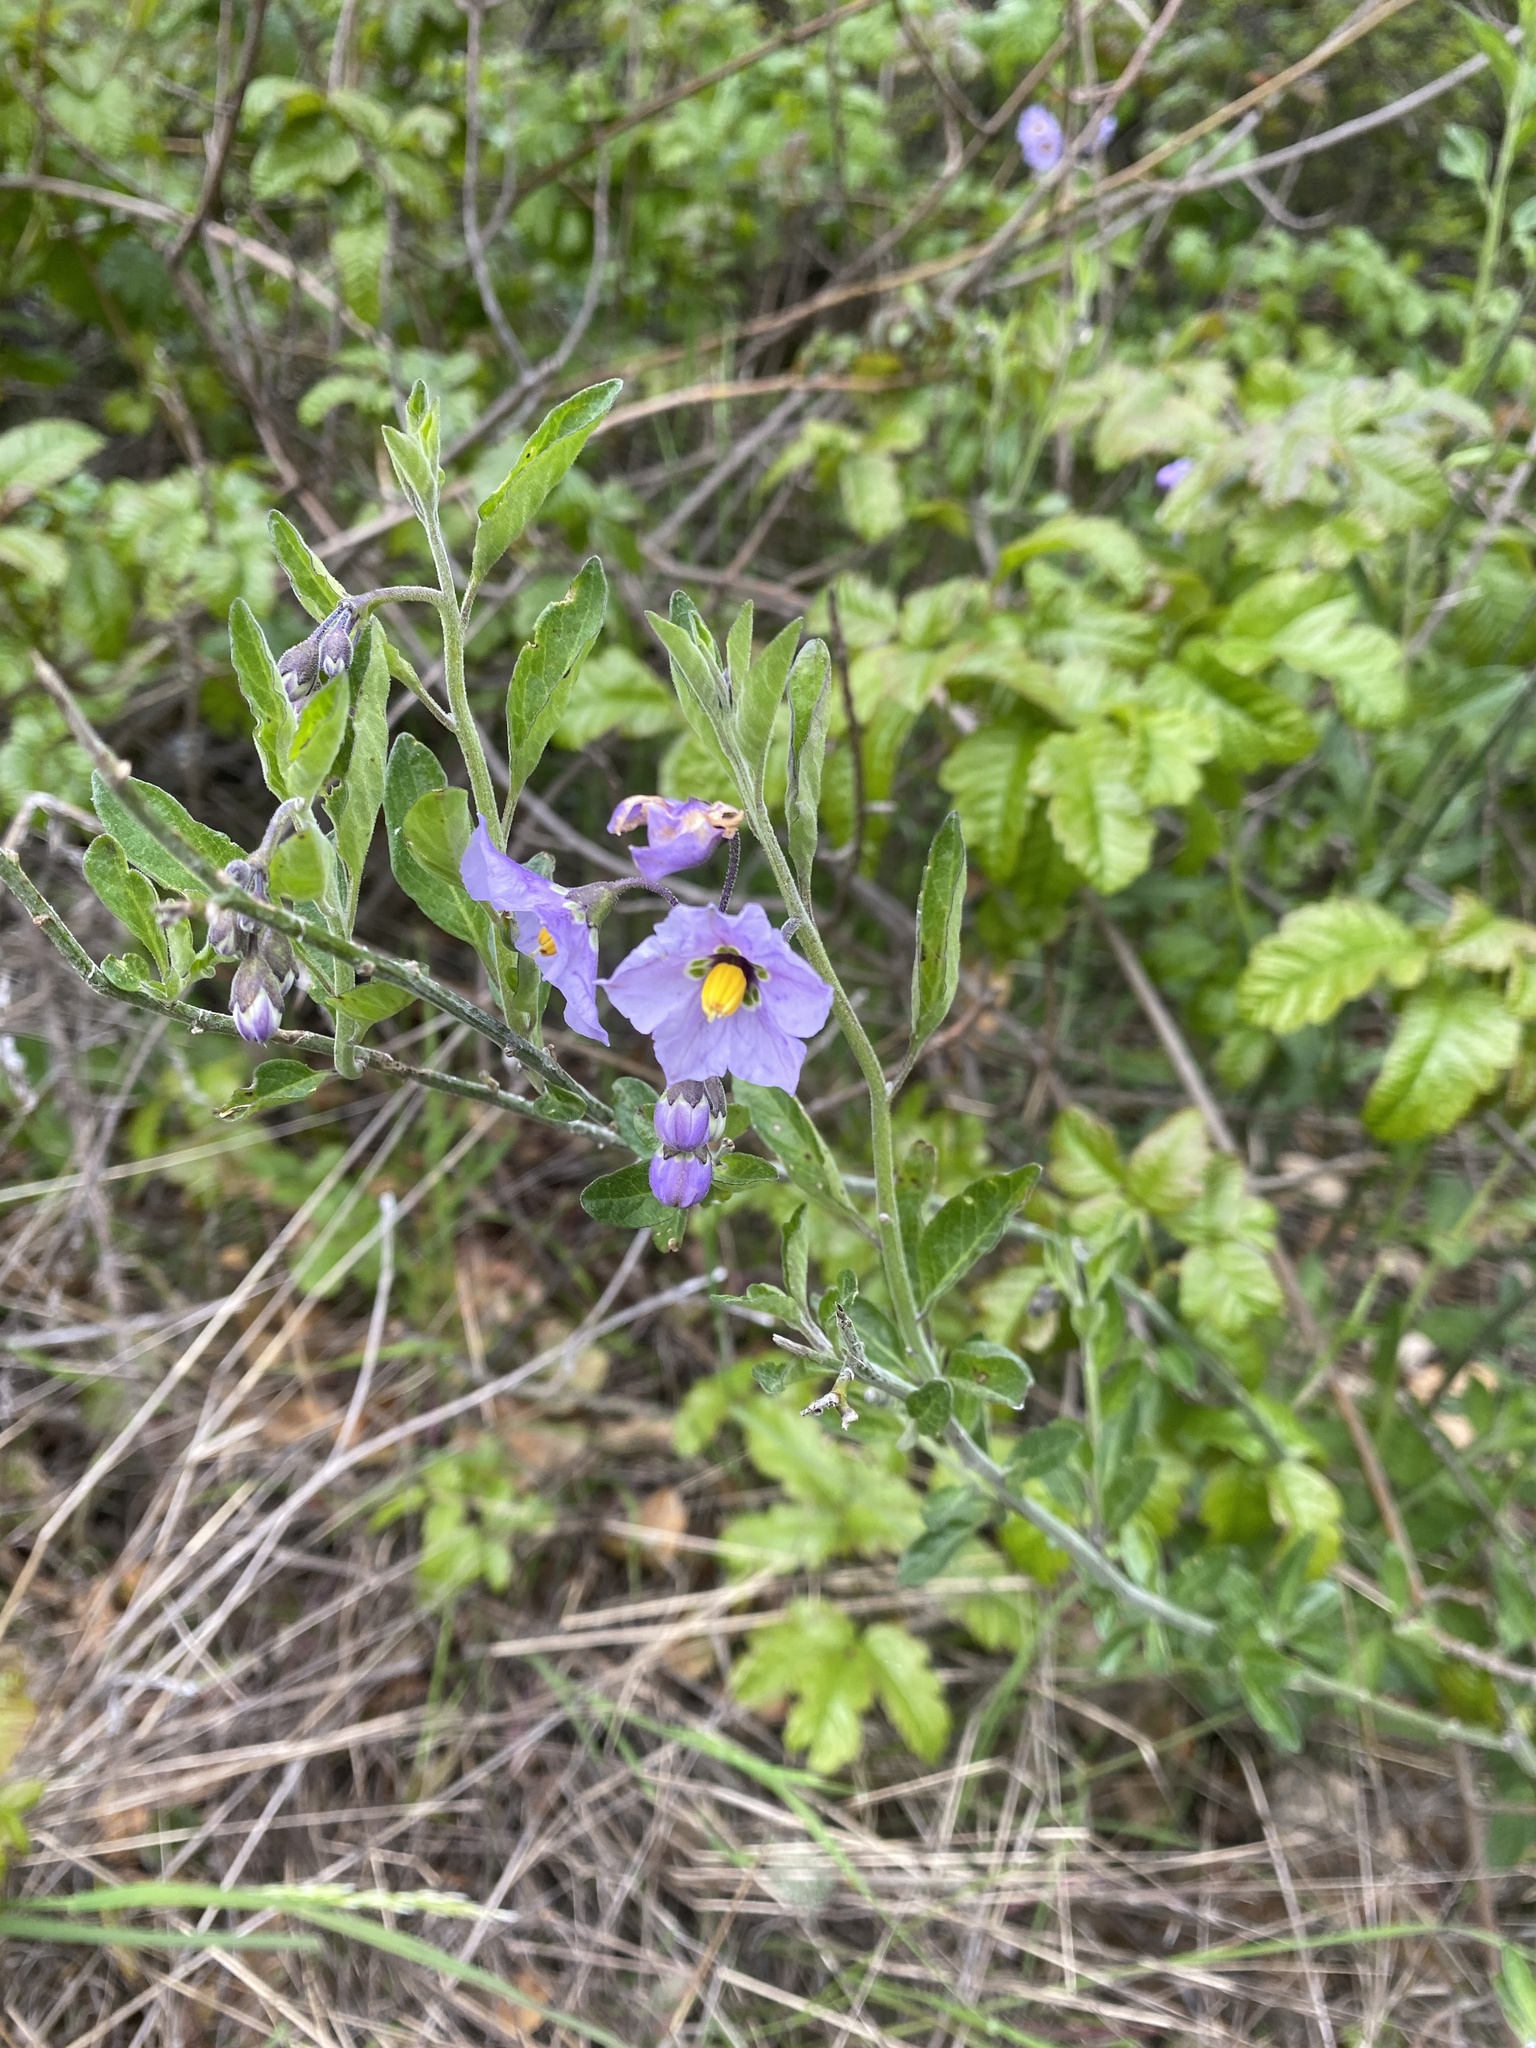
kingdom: Plantae
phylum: Tracheophyta
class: Magnoliopsida
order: Solanales
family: Solanaceae
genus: Solanum
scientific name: Solanum umbelliferum
